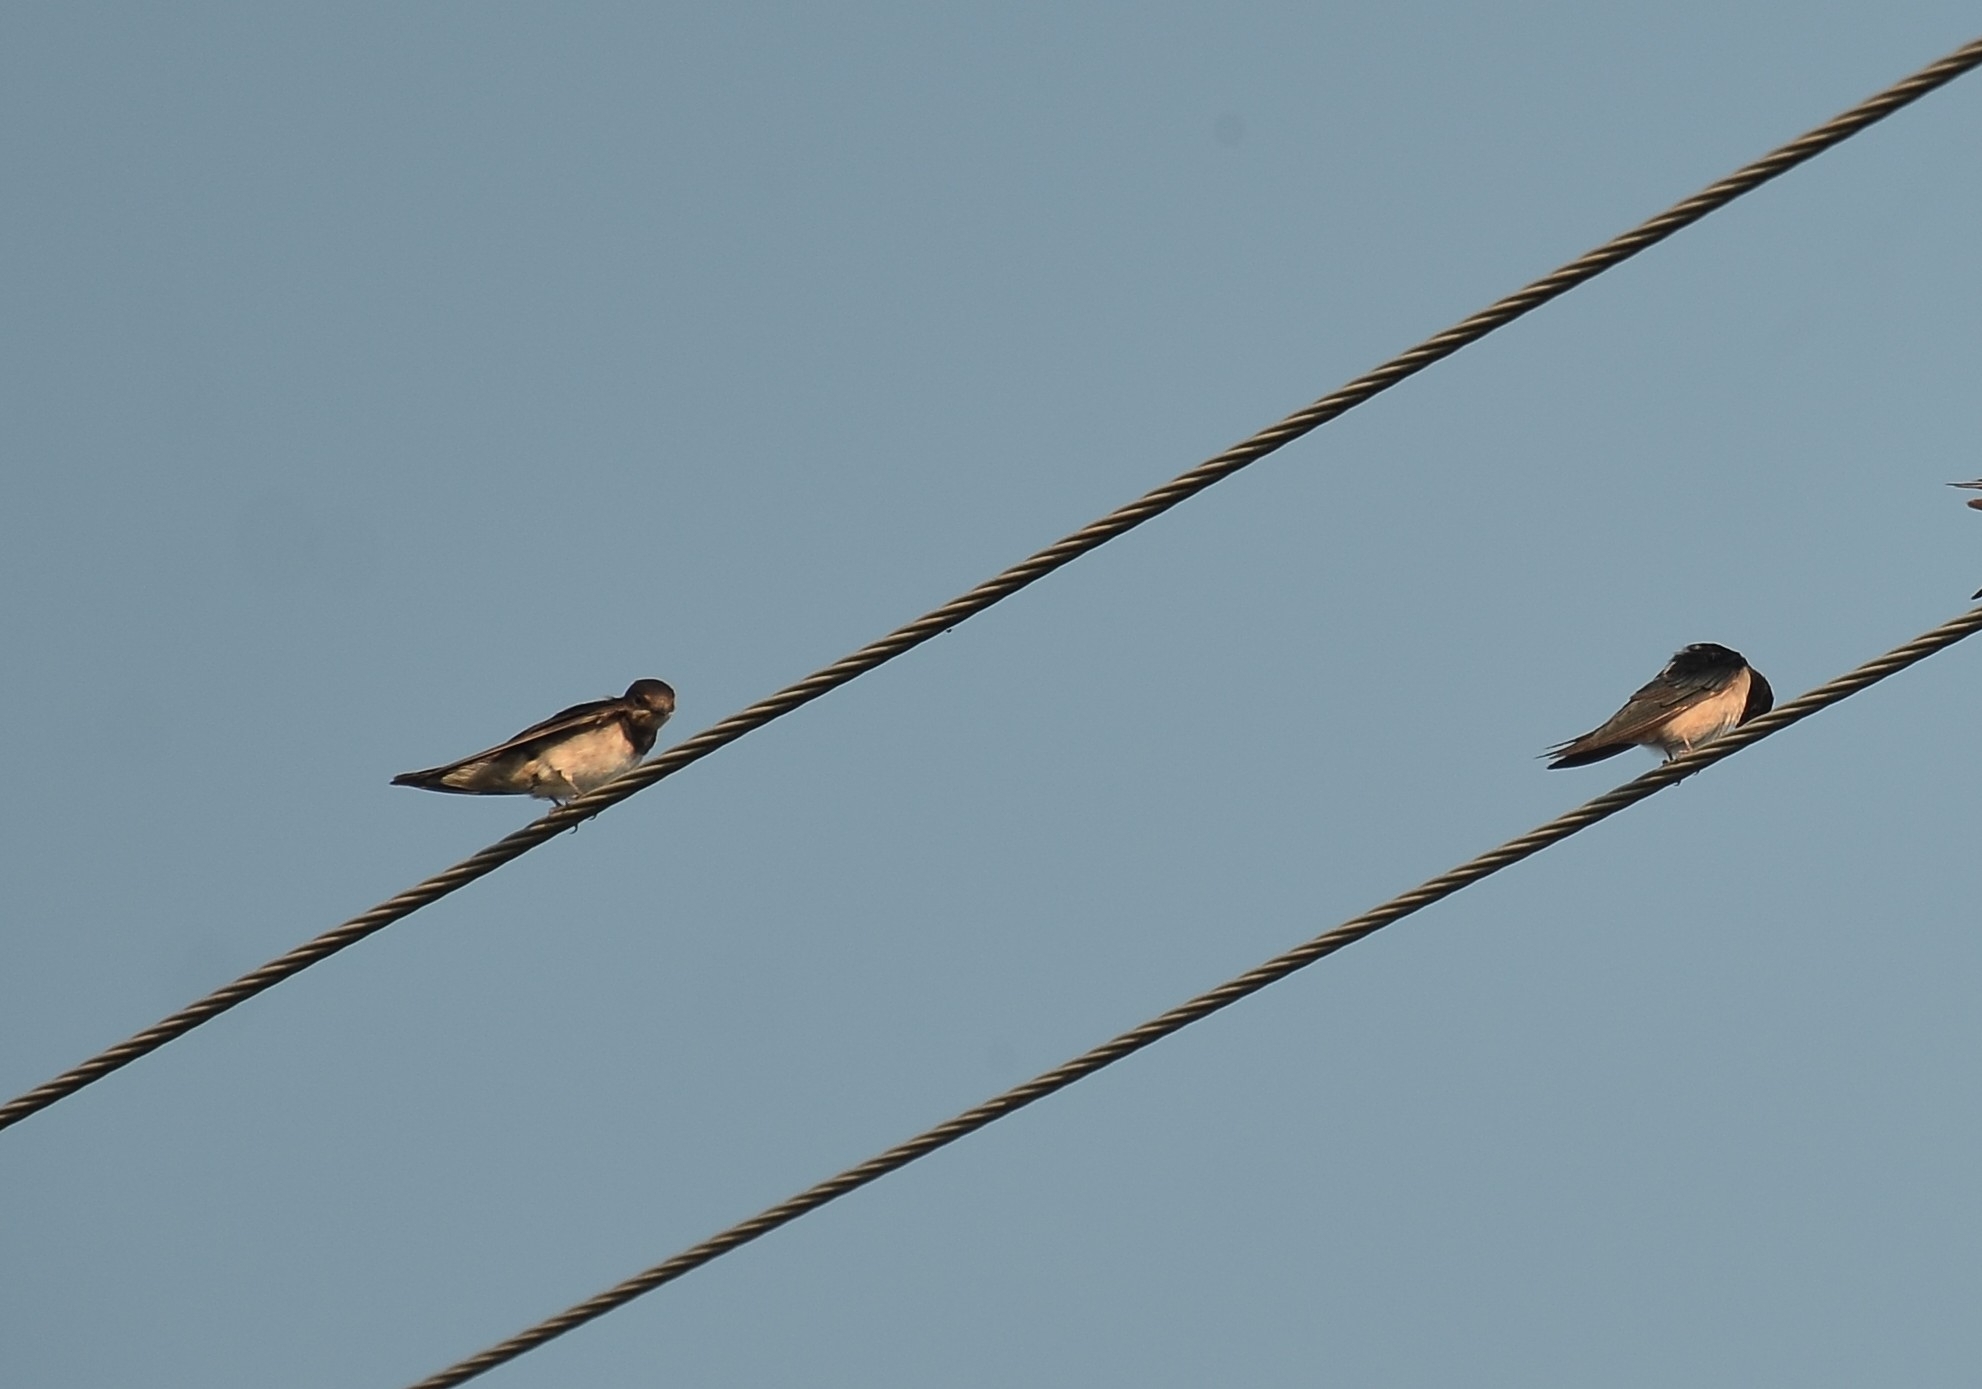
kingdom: Animalia
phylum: Chordata
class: Aves
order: Passeriformes
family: Hirundinidae
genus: Hirundo
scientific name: Hirundo rustica
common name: Barn swallow
